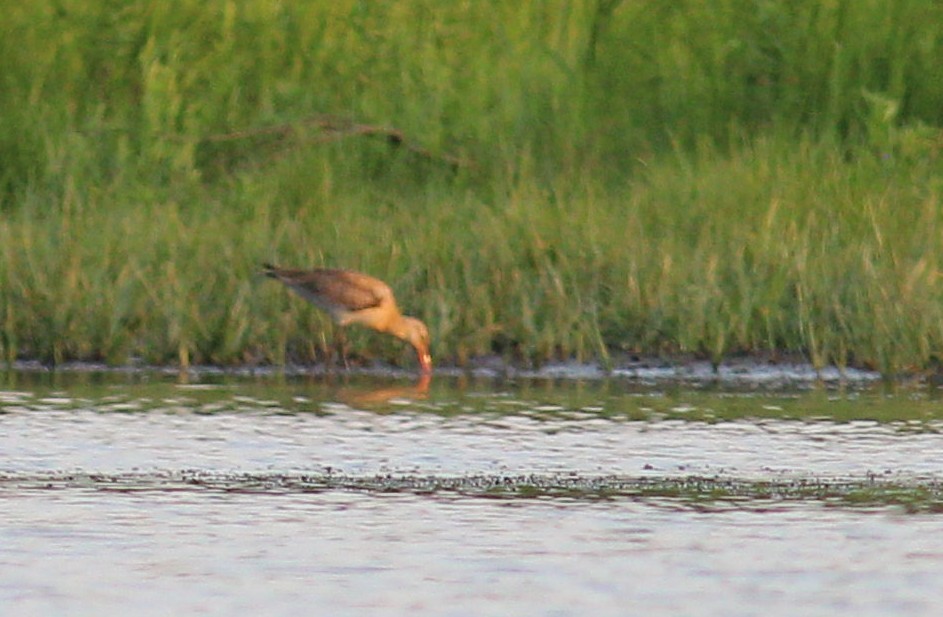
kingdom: Animalia
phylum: Chordata
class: Aves
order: Charadriiformes
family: Scolopacidae
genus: Limosa
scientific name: Limosa limosa
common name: Black-tailed godwit
